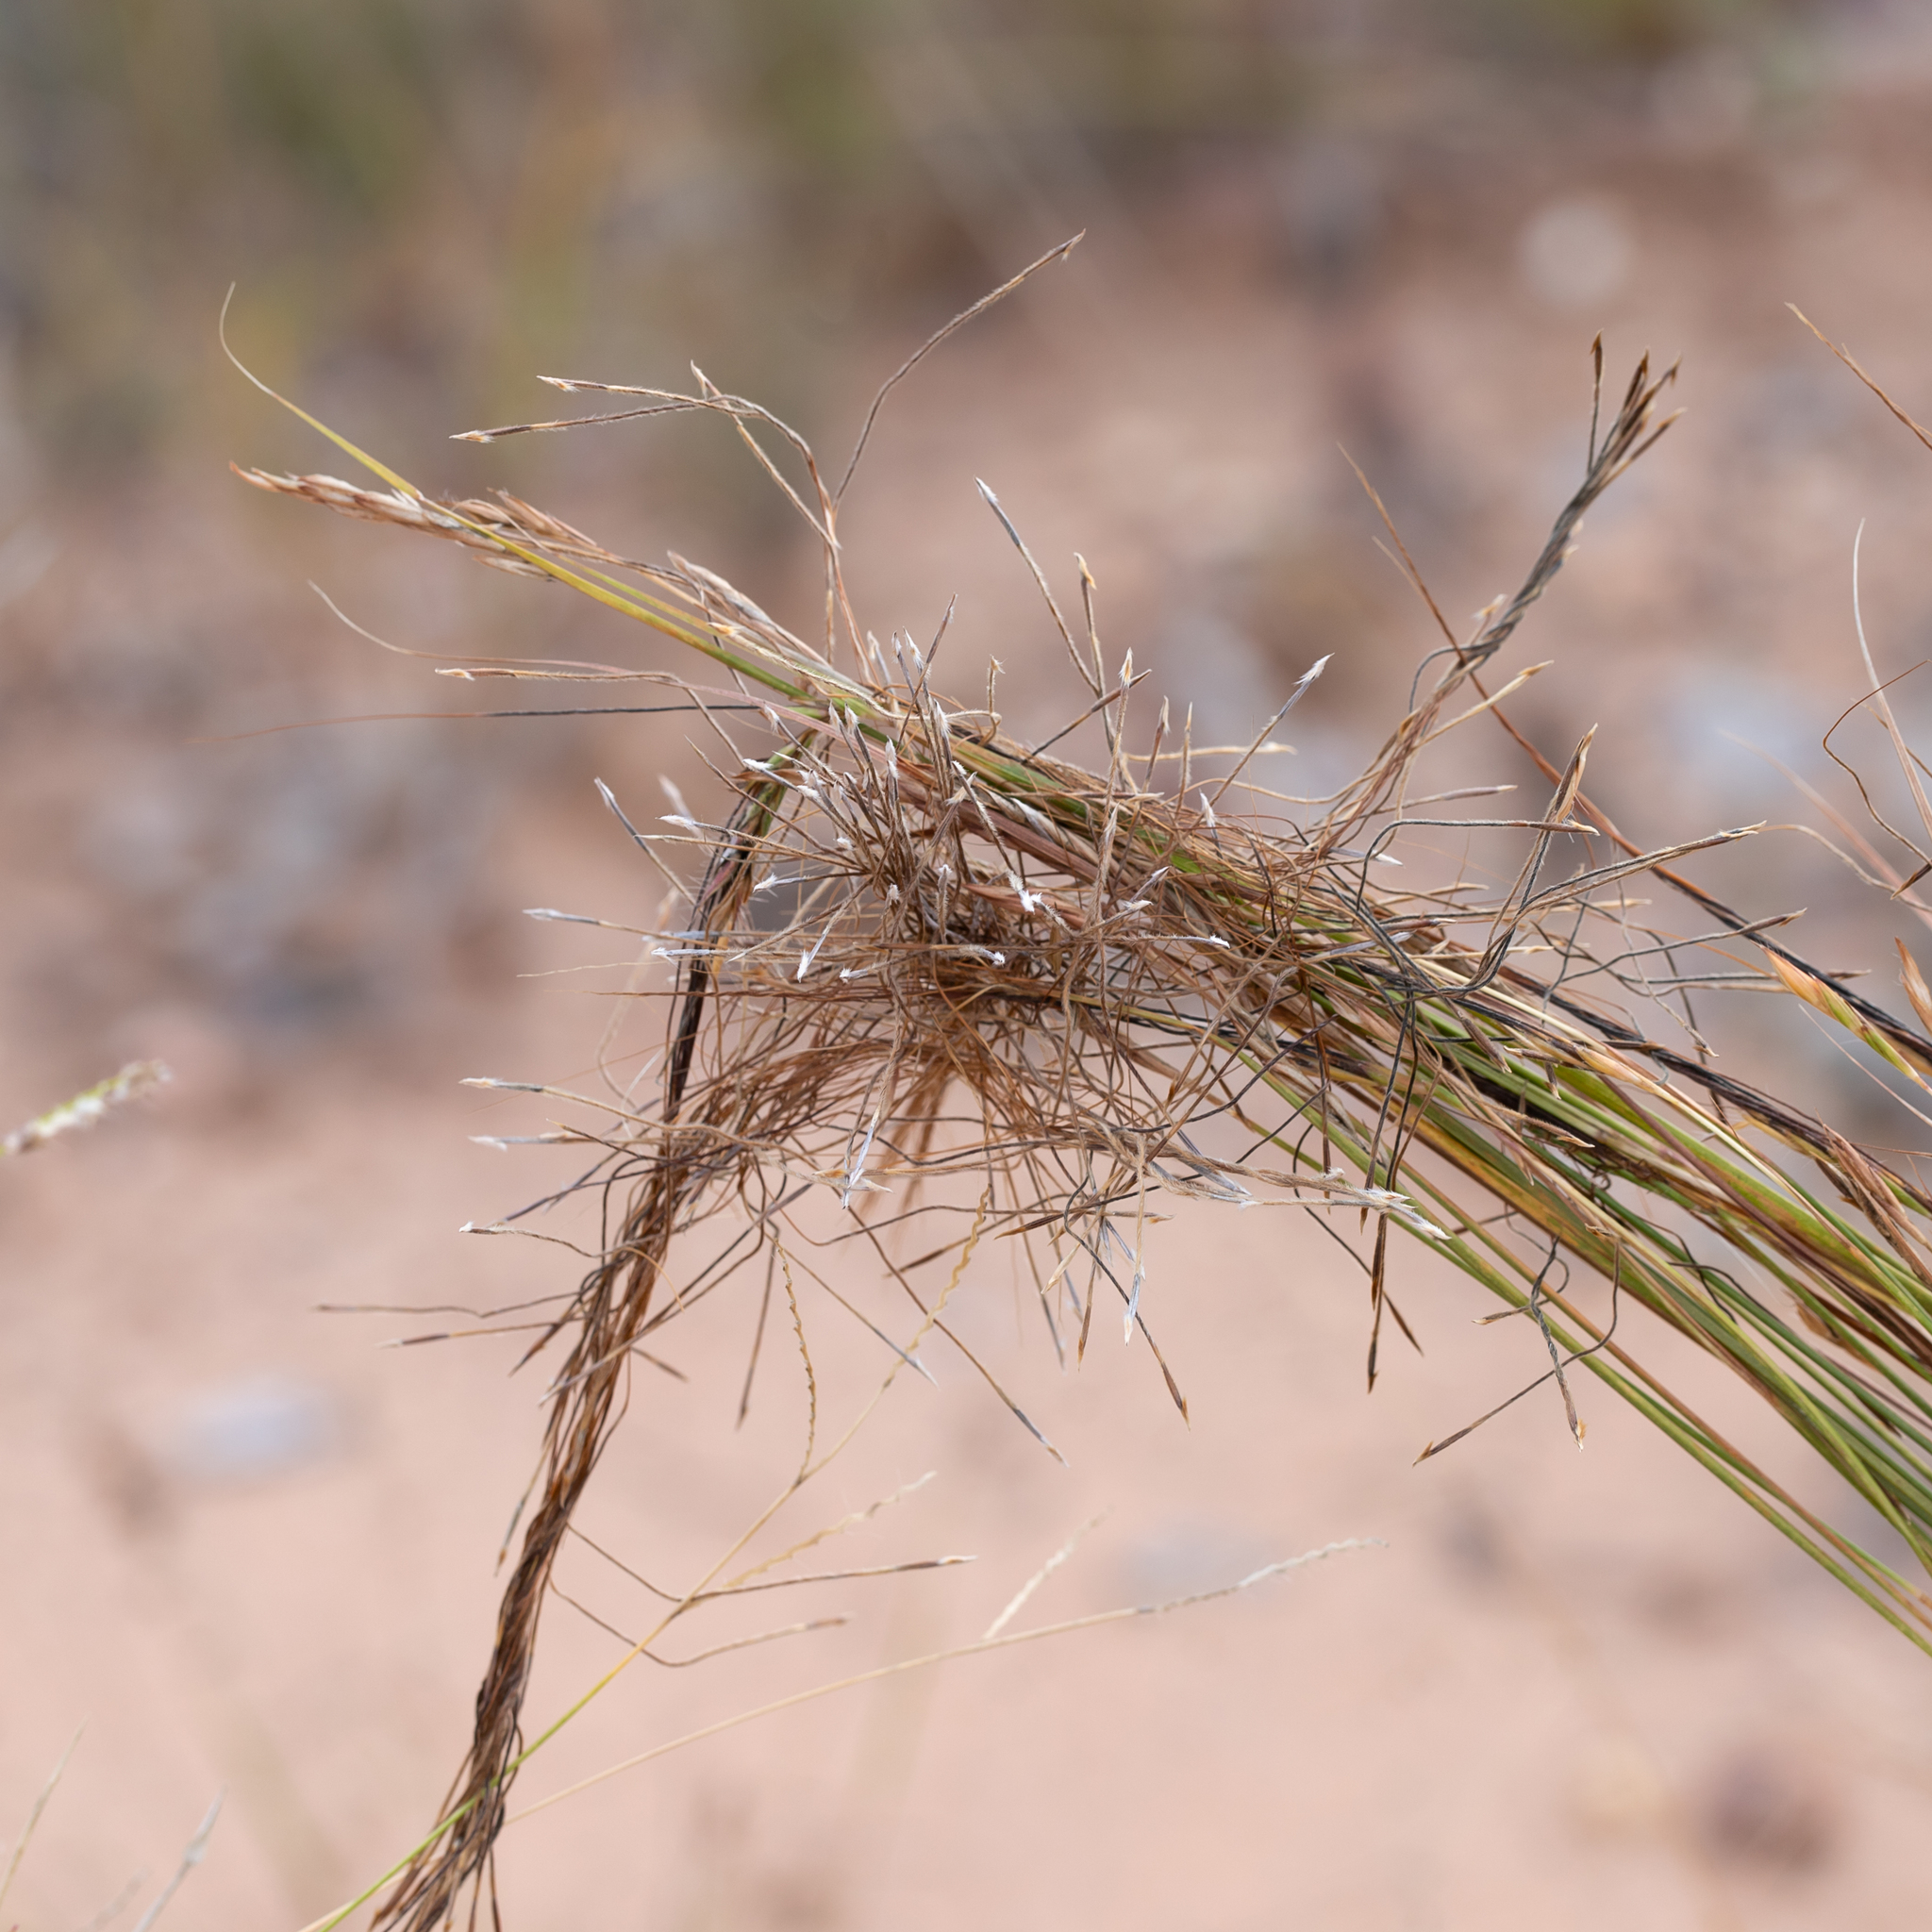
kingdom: Plantae
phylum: Tracheophyta
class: Liliopsida
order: Poales
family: Poaceae
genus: Heteropogon
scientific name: Heteropogon contortus
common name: Tanglehead
